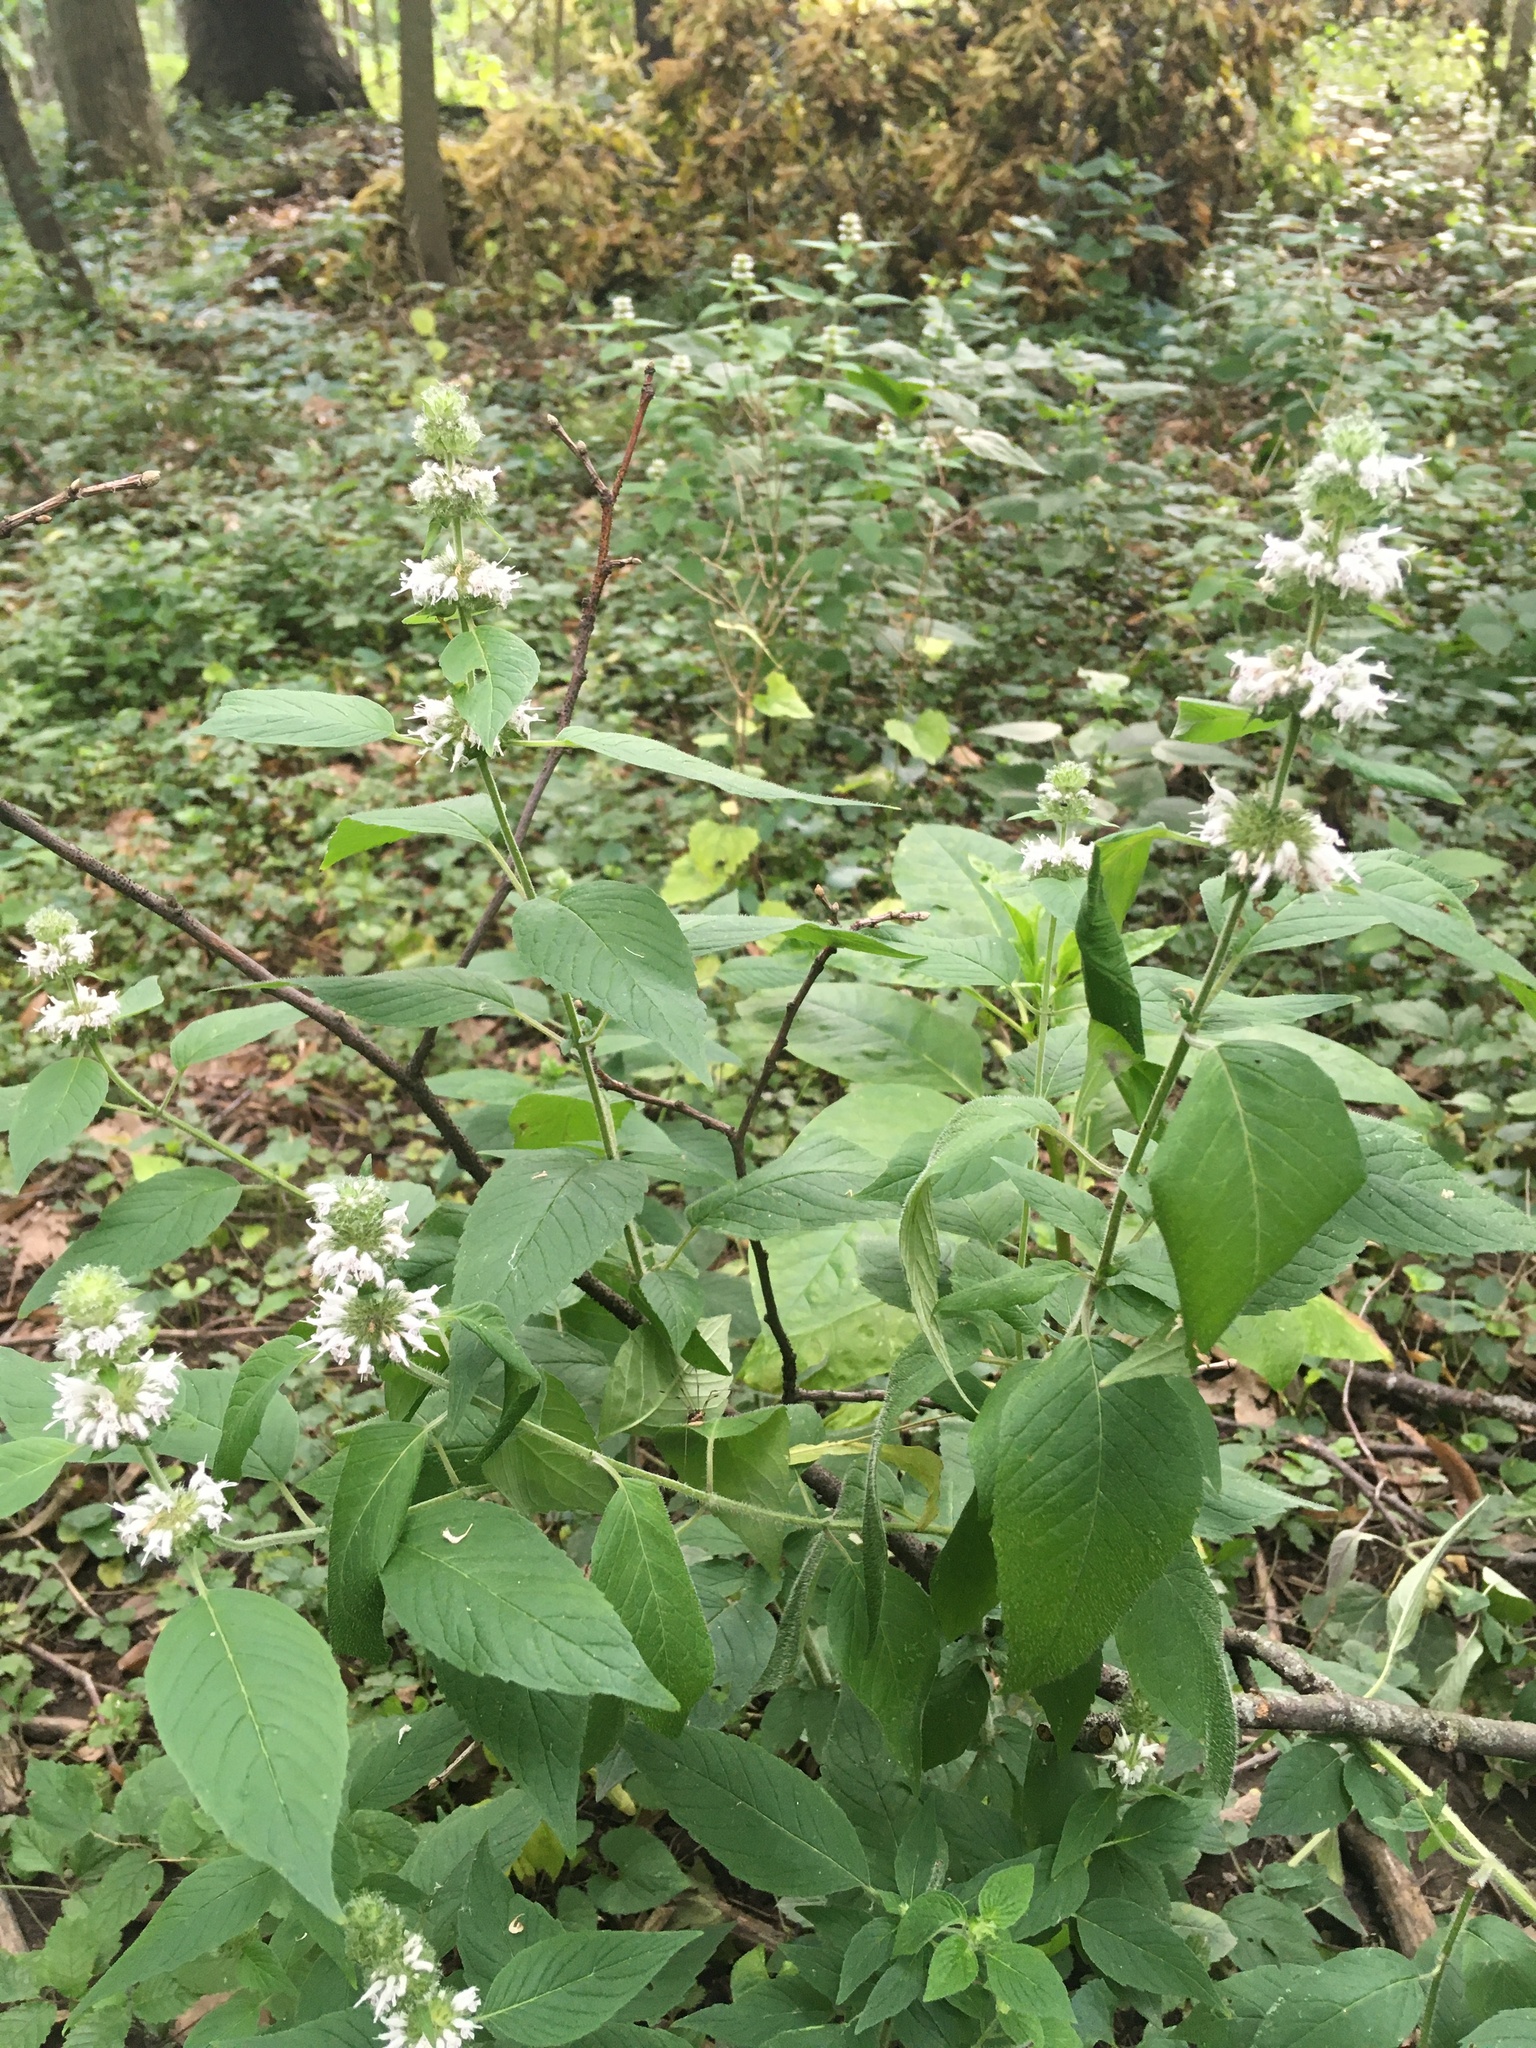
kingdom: Plantae
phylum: Tracheophyta
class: Magnoliopsida
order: Lamiales
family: Lamiaceae
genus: Blephilia
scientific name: Blephilia hirsuta
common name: Hairy blephilia
